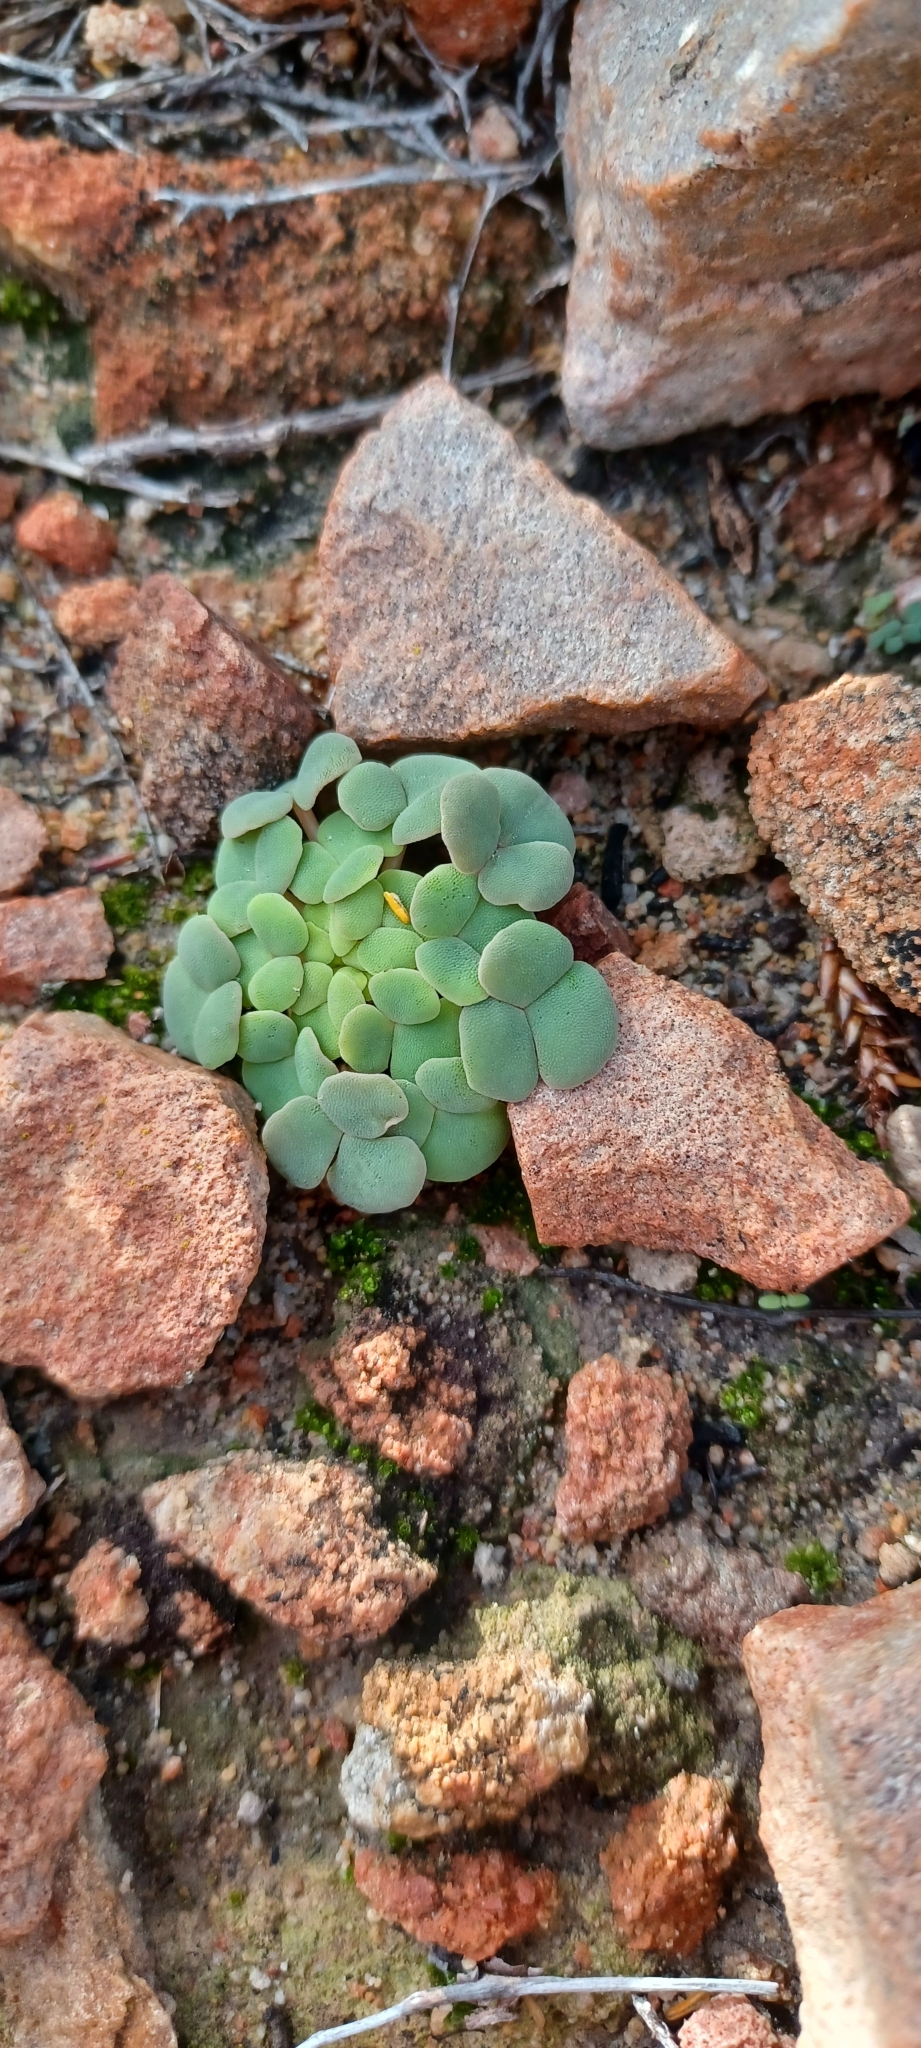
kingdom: Plantae
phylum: Tracheophyta
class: Magnoliopsida
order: Oxalidales
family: Oxalidaceae
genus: Oxalis
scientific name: Oxalis convexula
